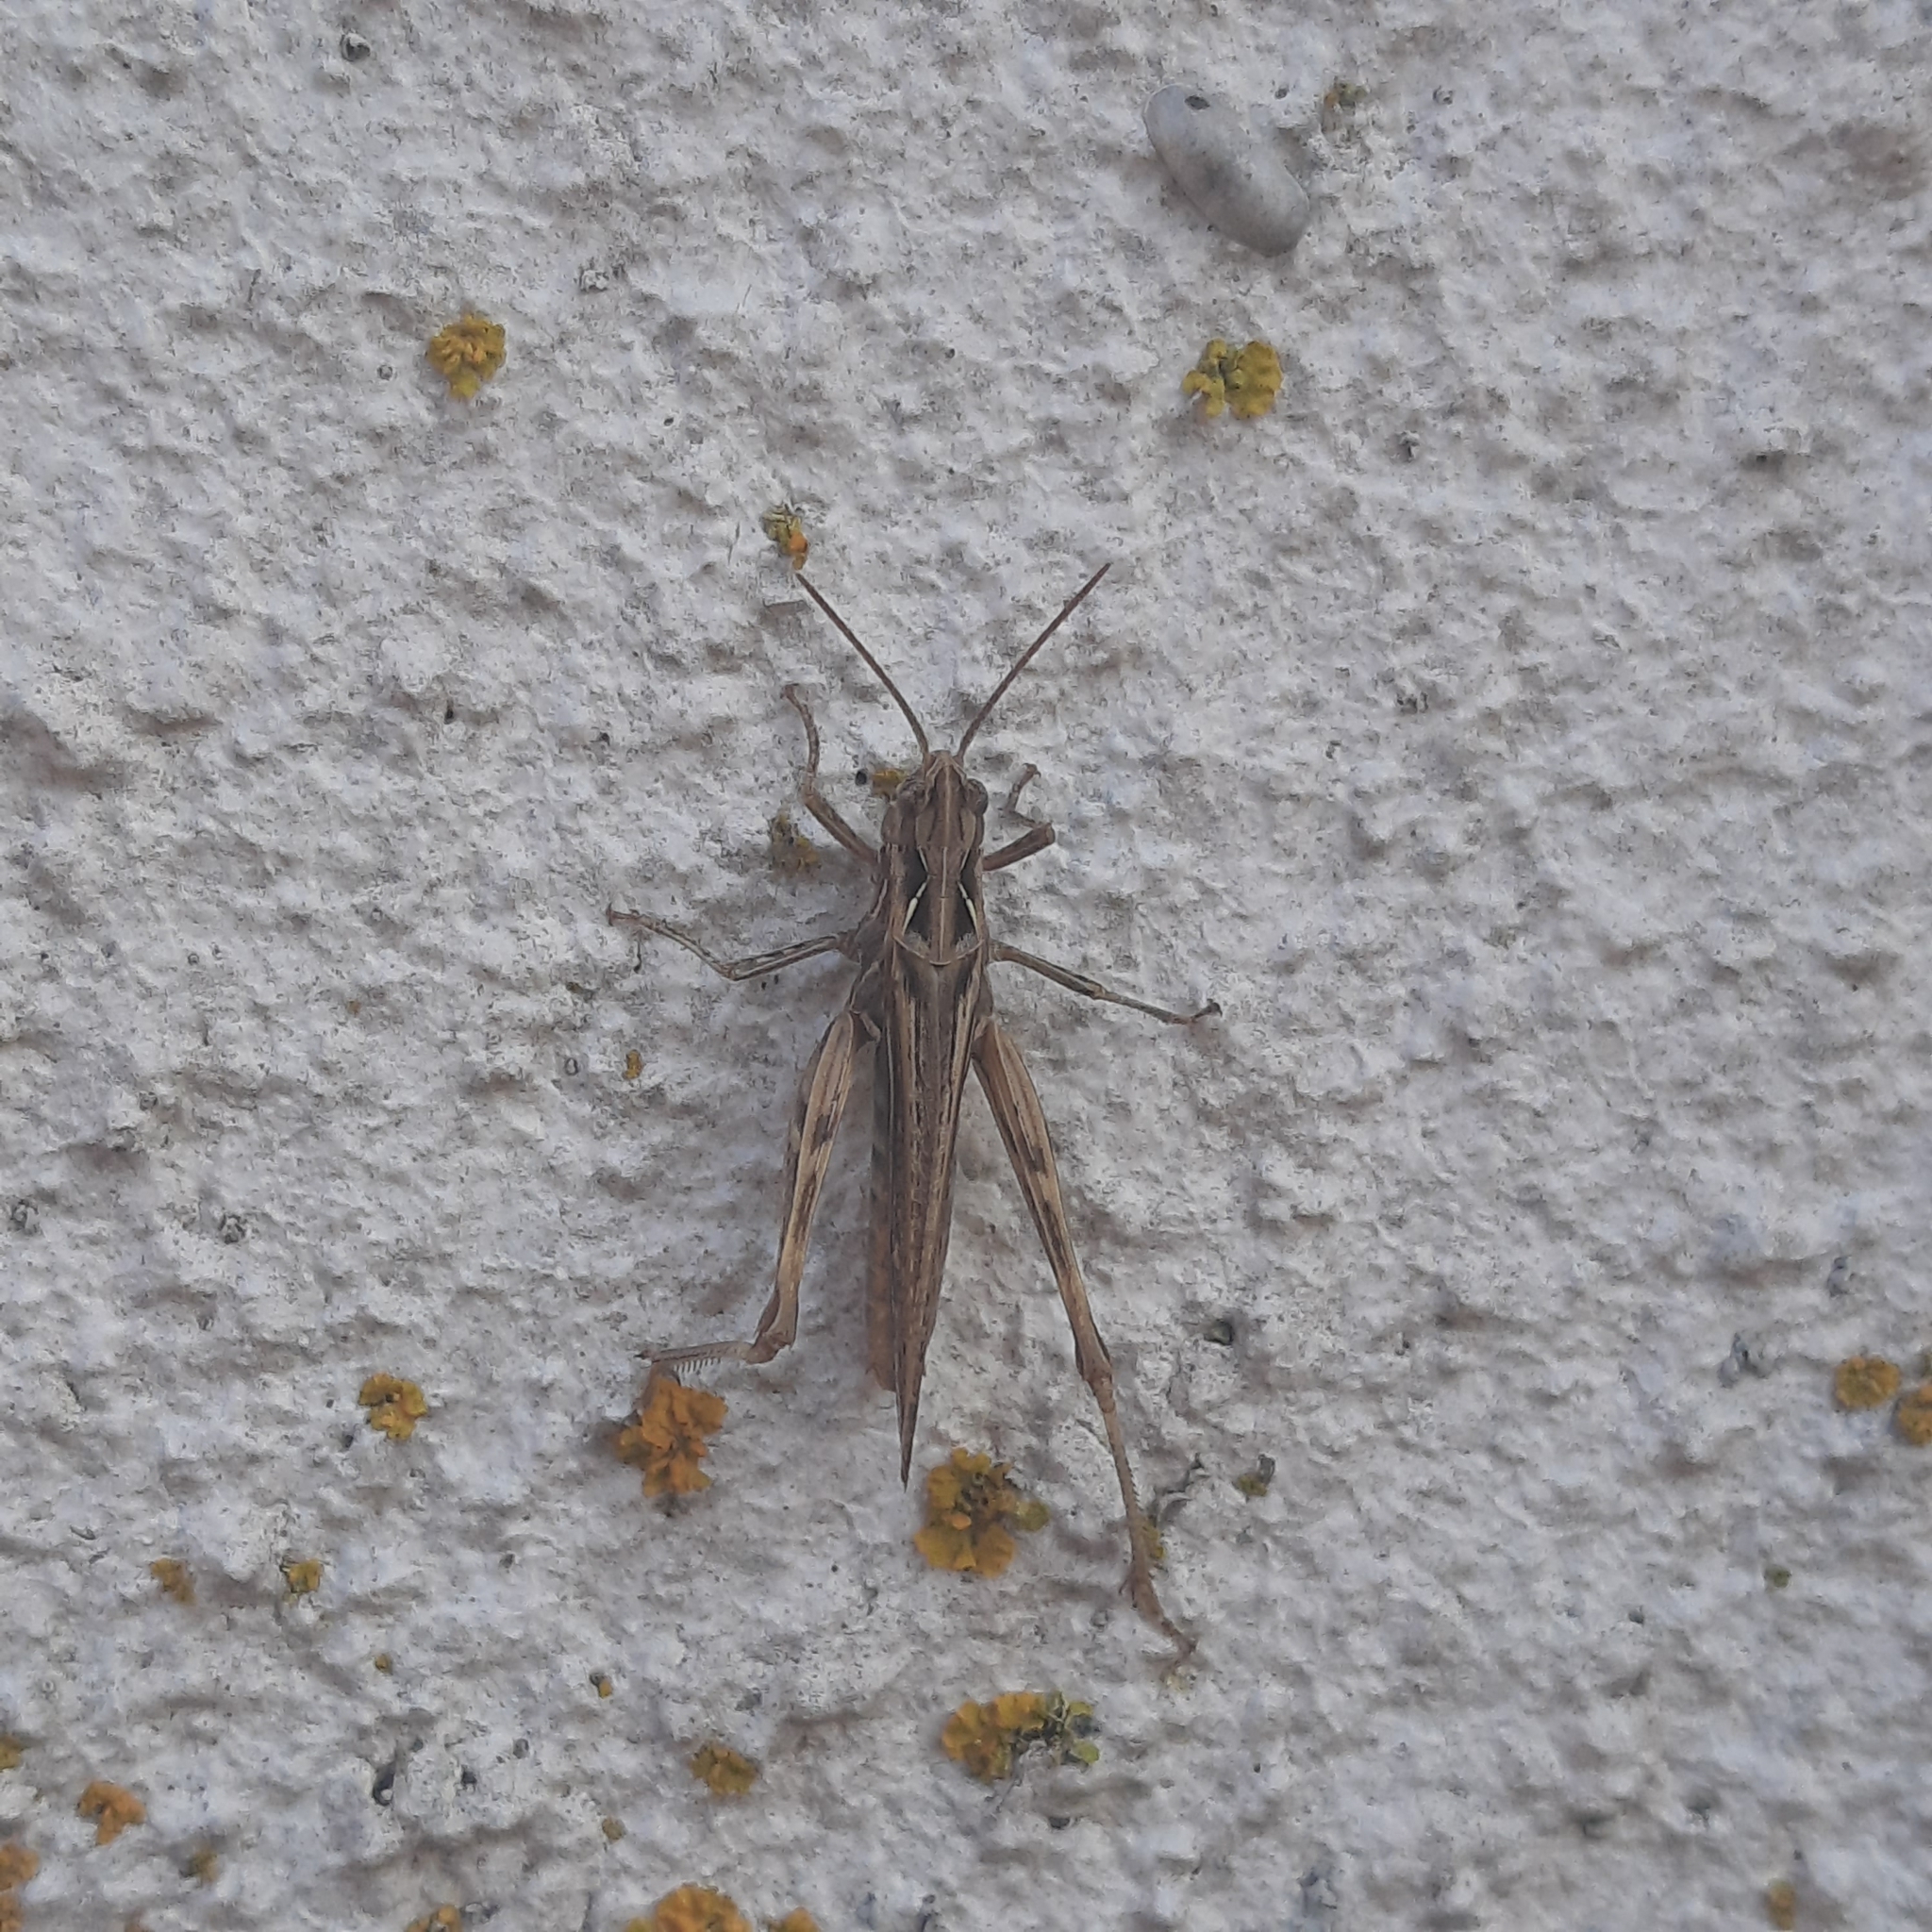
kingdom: Animalia
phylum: Arthropoda
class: Insecta
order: Orthoptera
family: Acrididae
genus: Glyptobothrus
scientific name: Glyptobothrus
